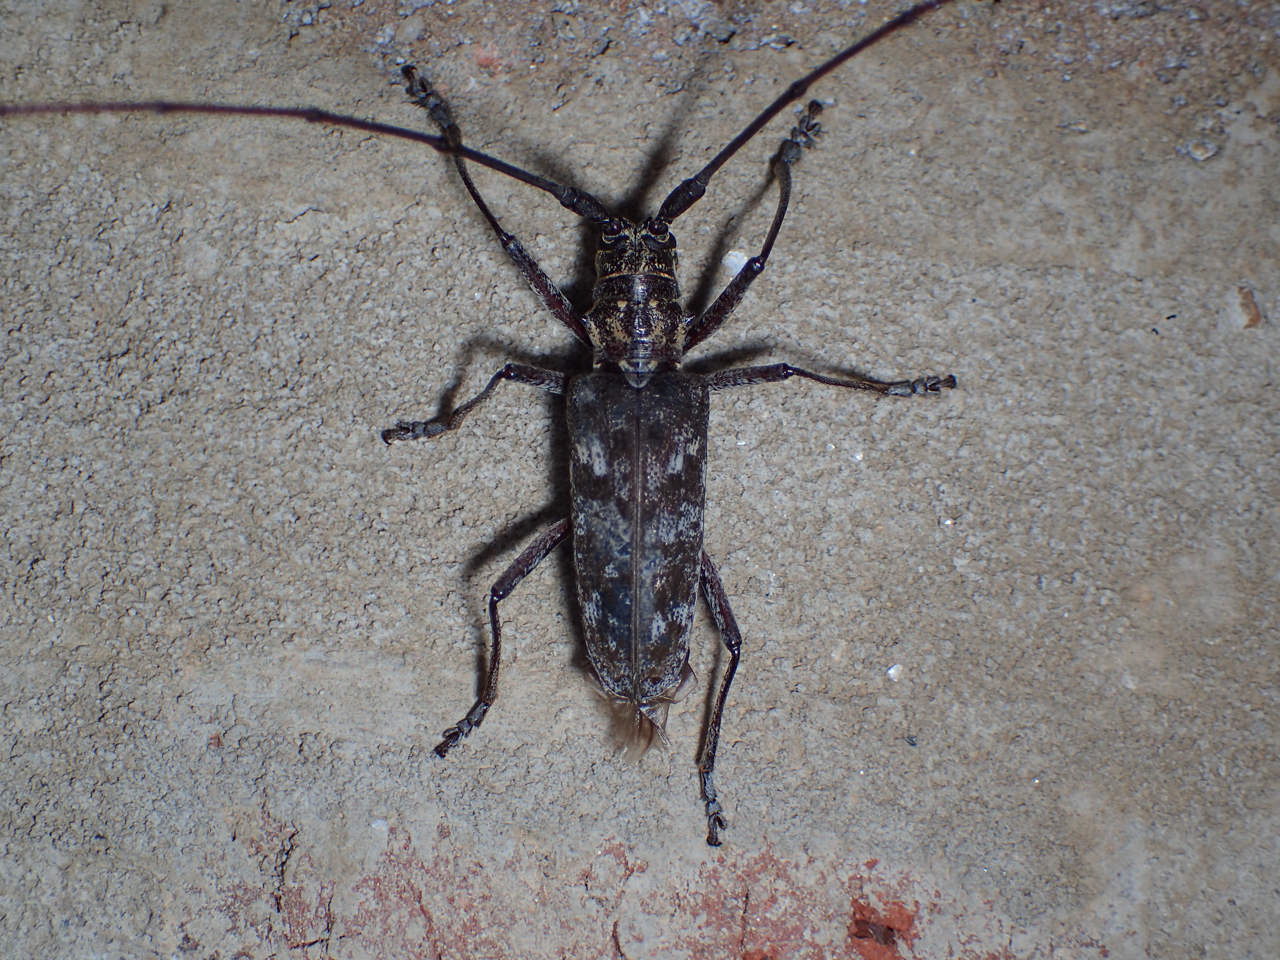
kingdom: Animalia
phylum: Arthropoda
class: Insecta
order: Coleoptera
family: Cerambycidae
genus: Monochamus
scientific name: Monochamus carolinensis
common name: Carolina pine sawyer
